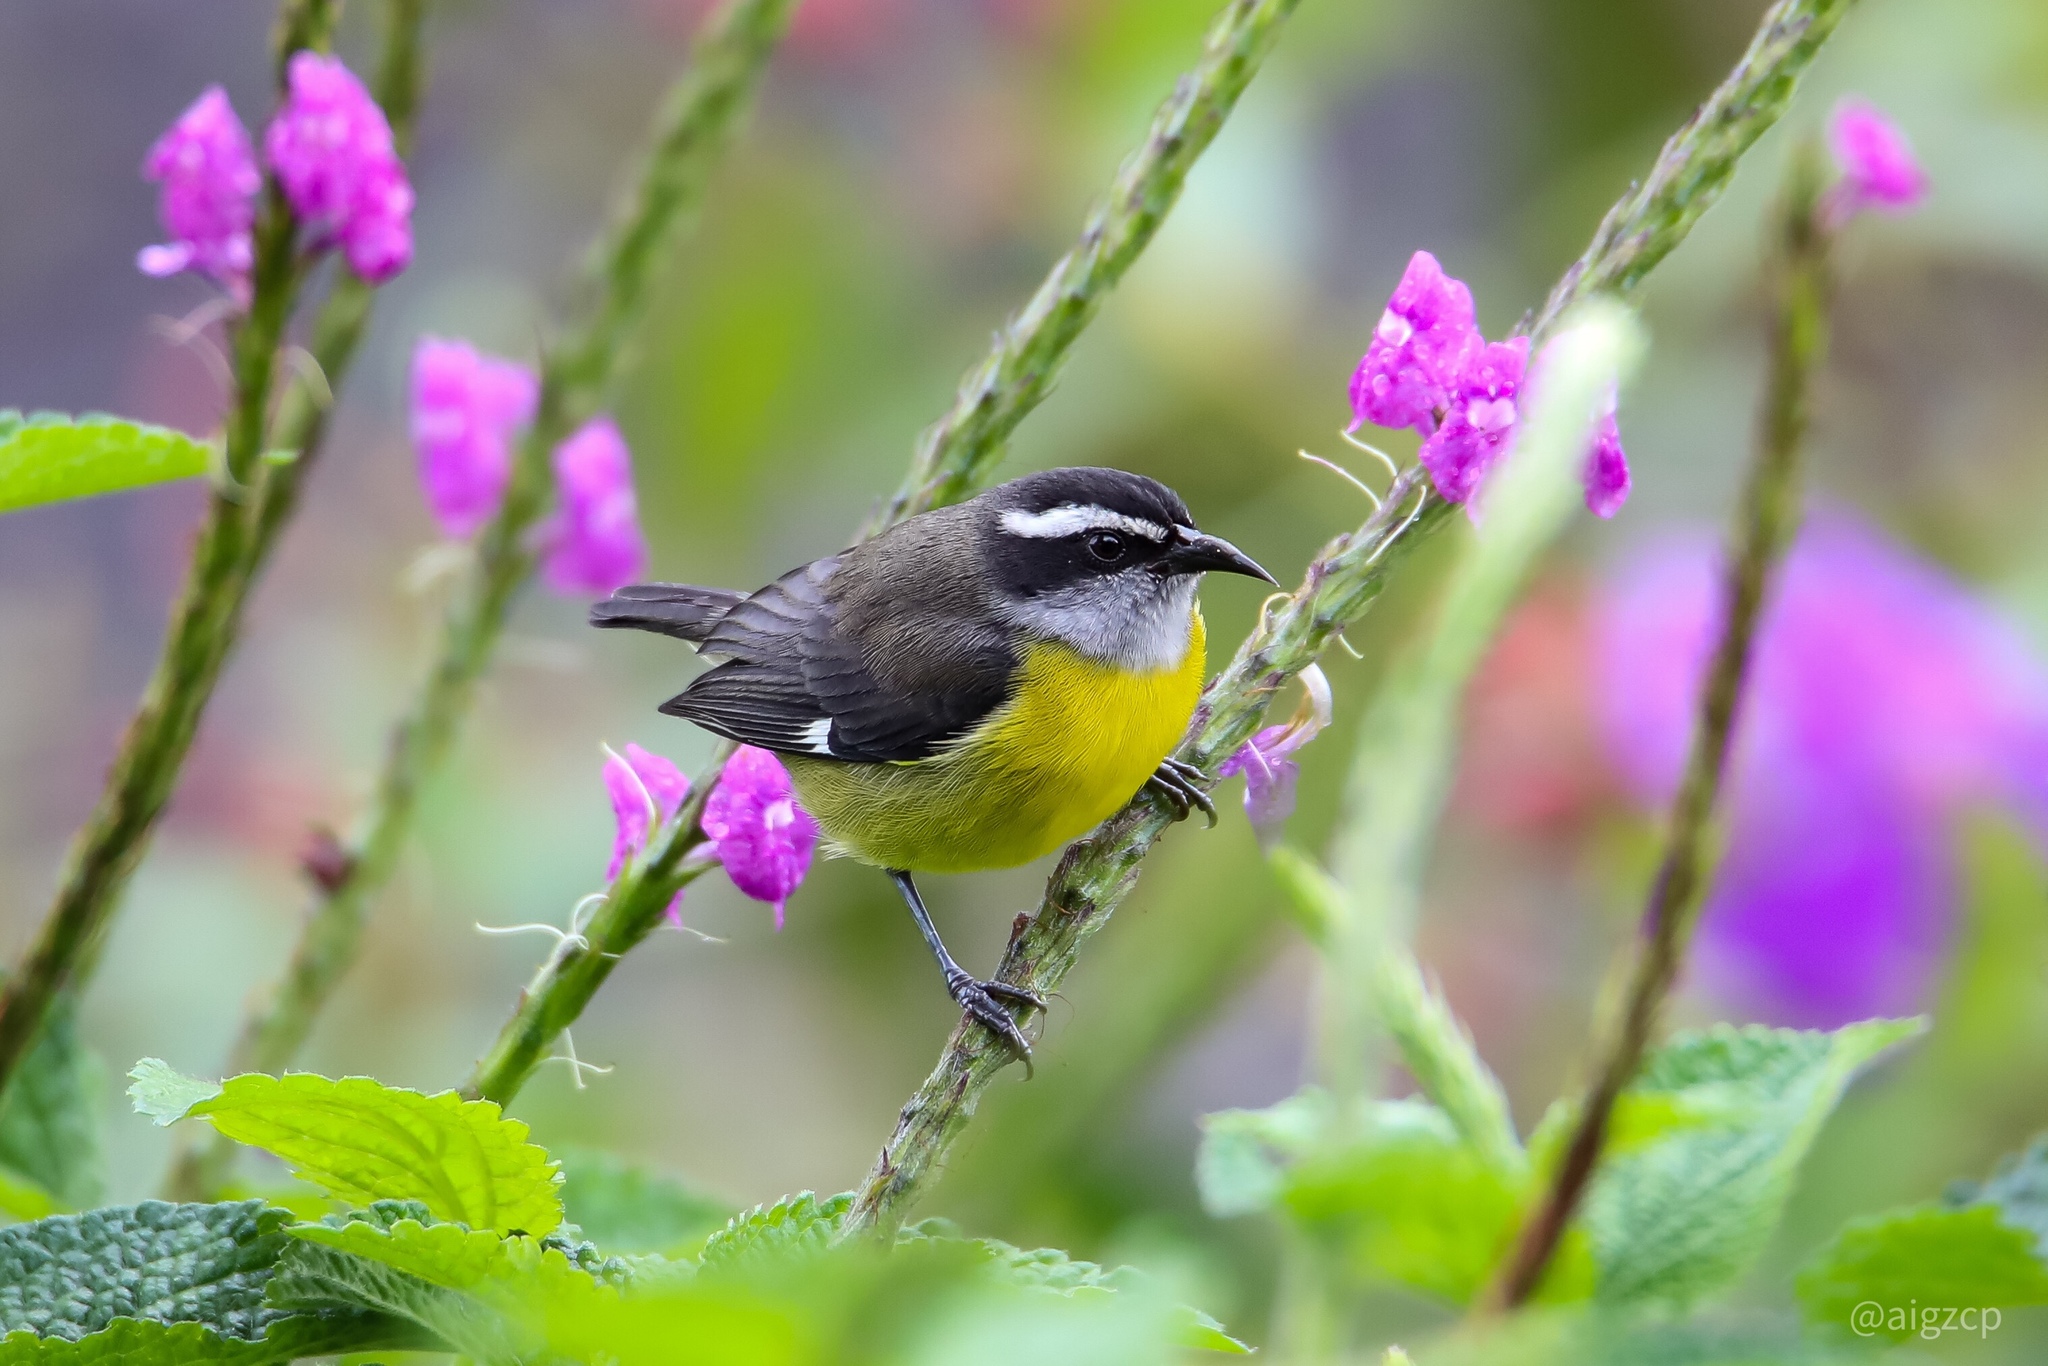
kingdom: Animalia
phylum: Chordata
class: Aves
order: Passeriformes
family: Thraupidae
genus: Coereba
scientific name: Coereba flaveola
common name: Bananaquit
